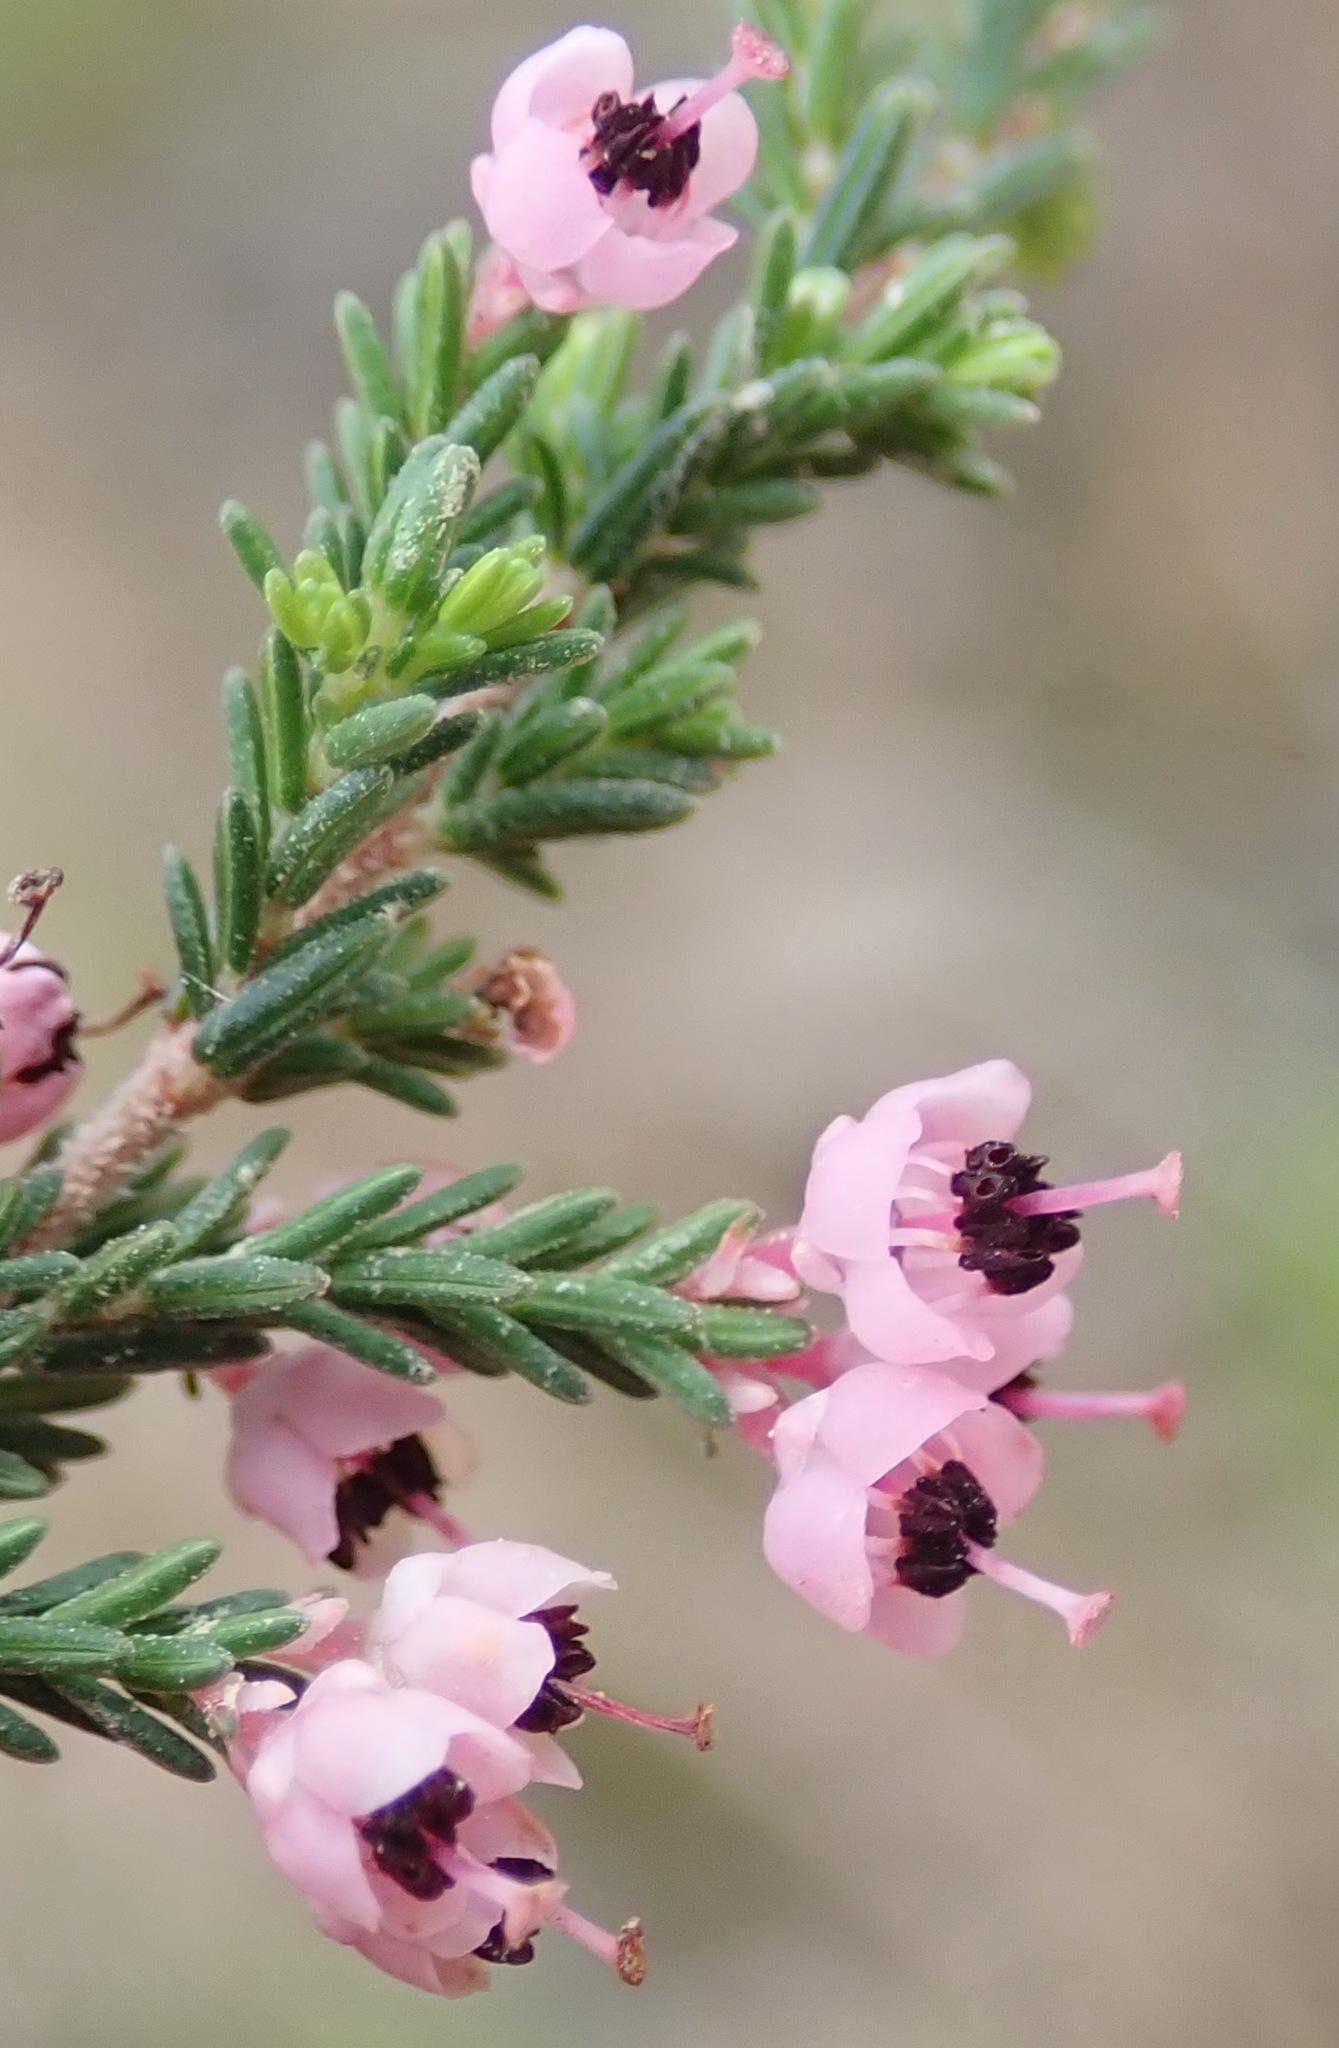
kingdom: Plantae
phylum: Tracheophyta
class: Magnoliopsida
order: Ericales
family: Ericaceae
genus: Erica
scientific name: Erica sparsa
